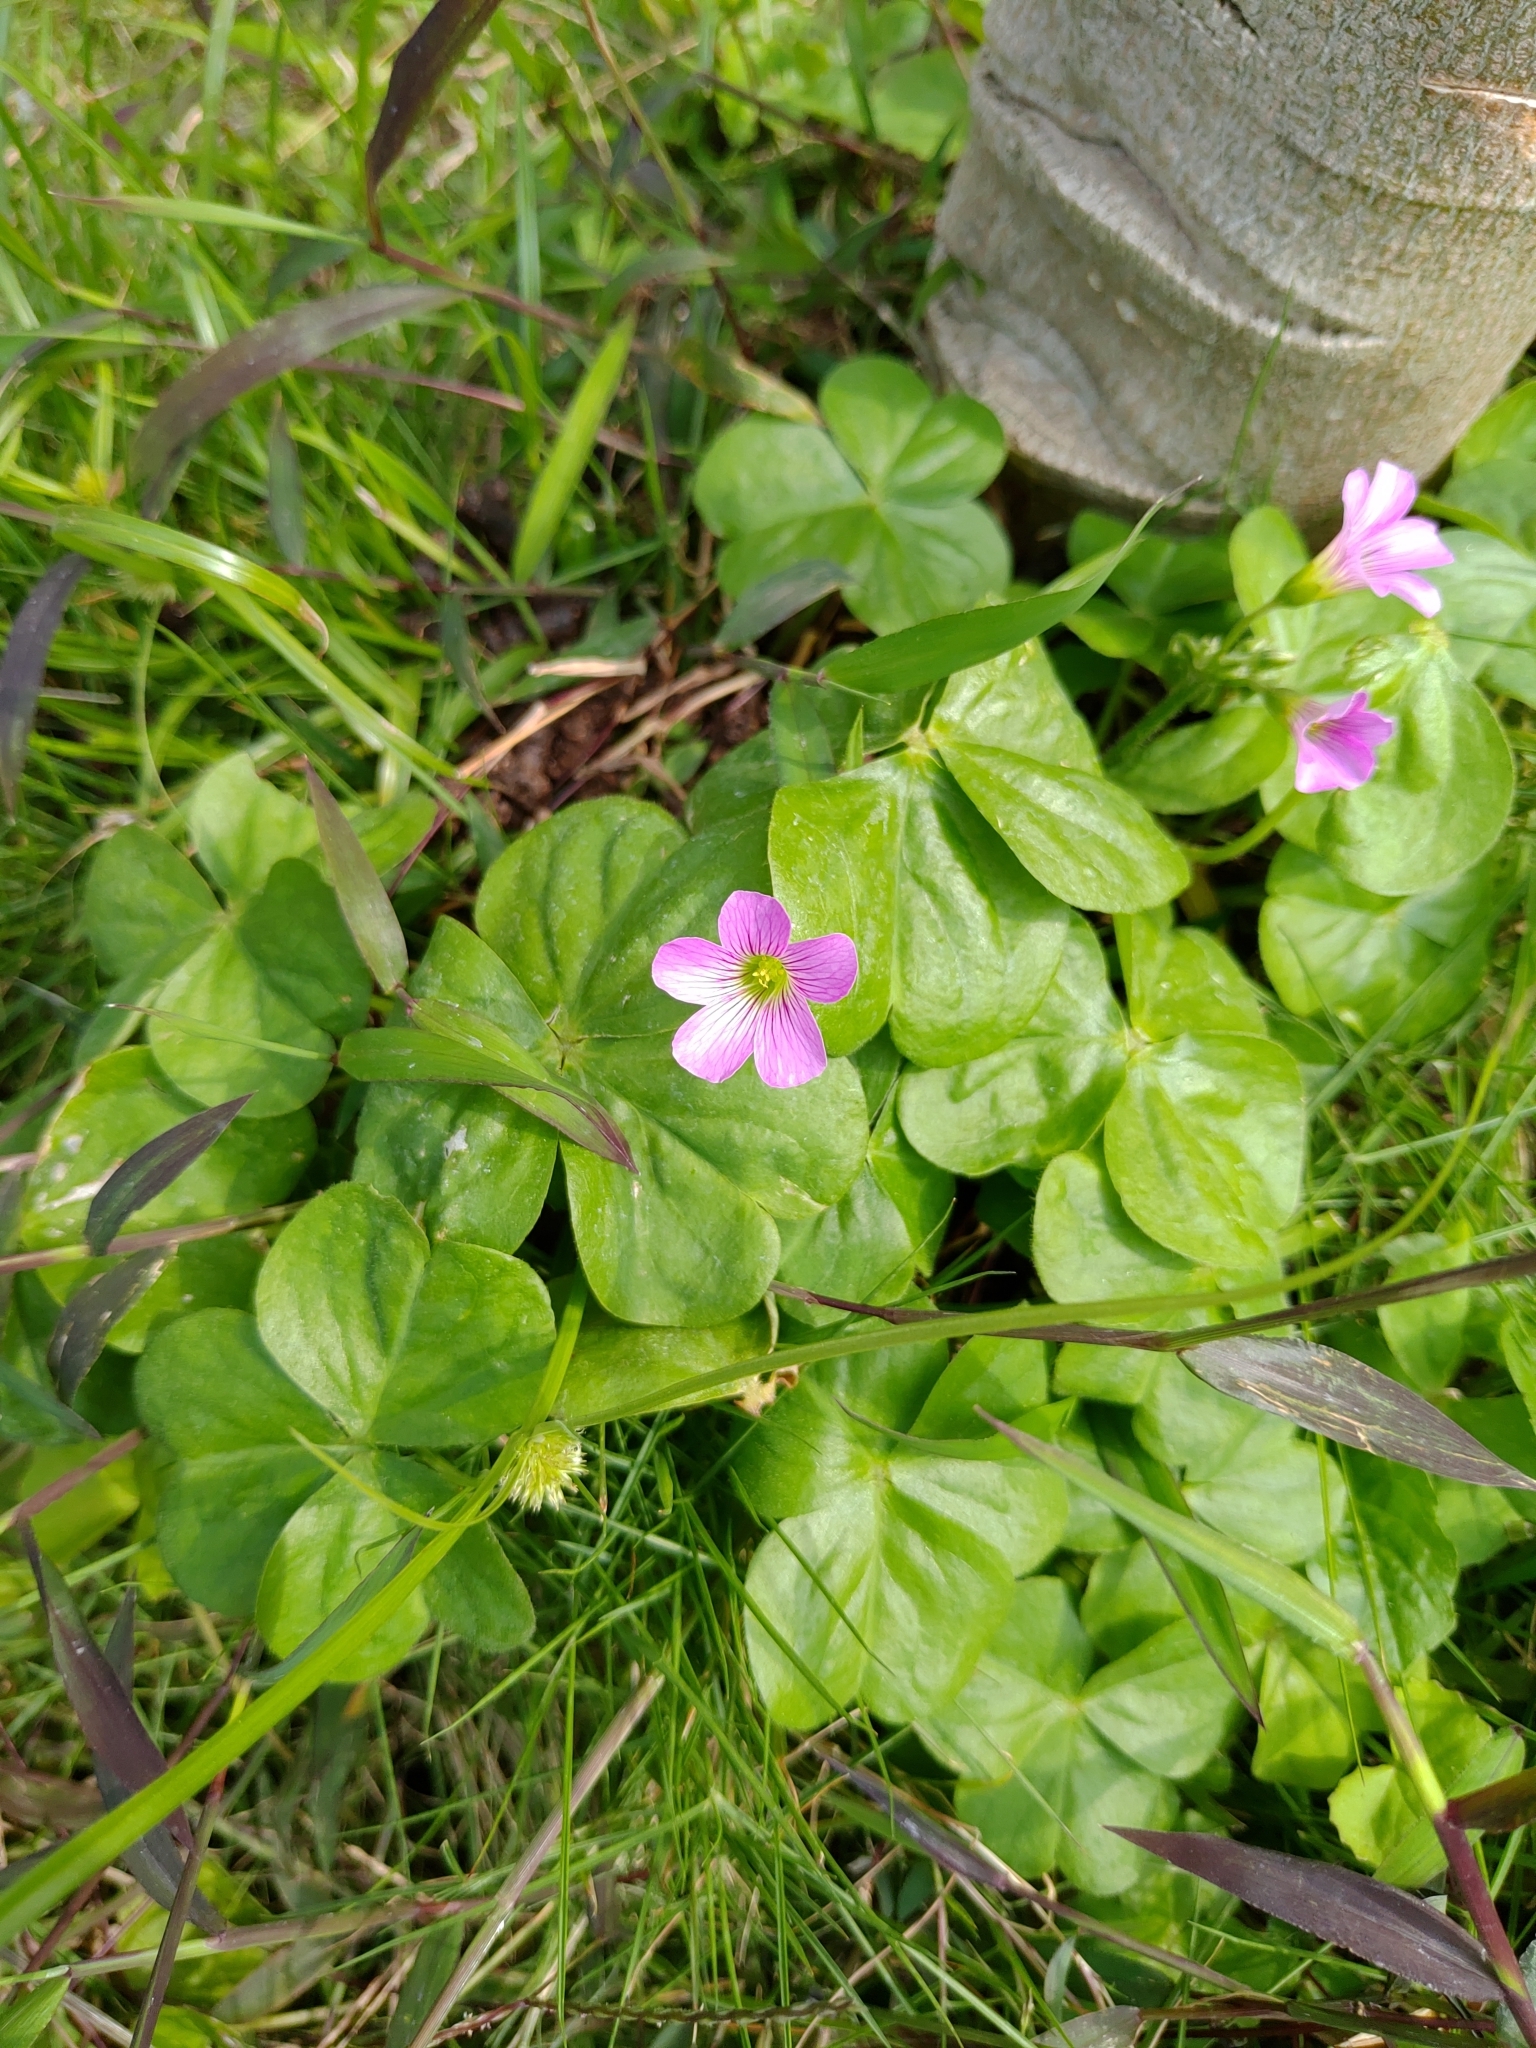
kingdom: Plantae
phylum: Tracheophyta
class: Magnoliopsida
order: Oxalidales
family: Oxalidaceae
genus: Oxalis
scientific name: Oxalis debilis
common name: Large-flowered pink-sorrel
